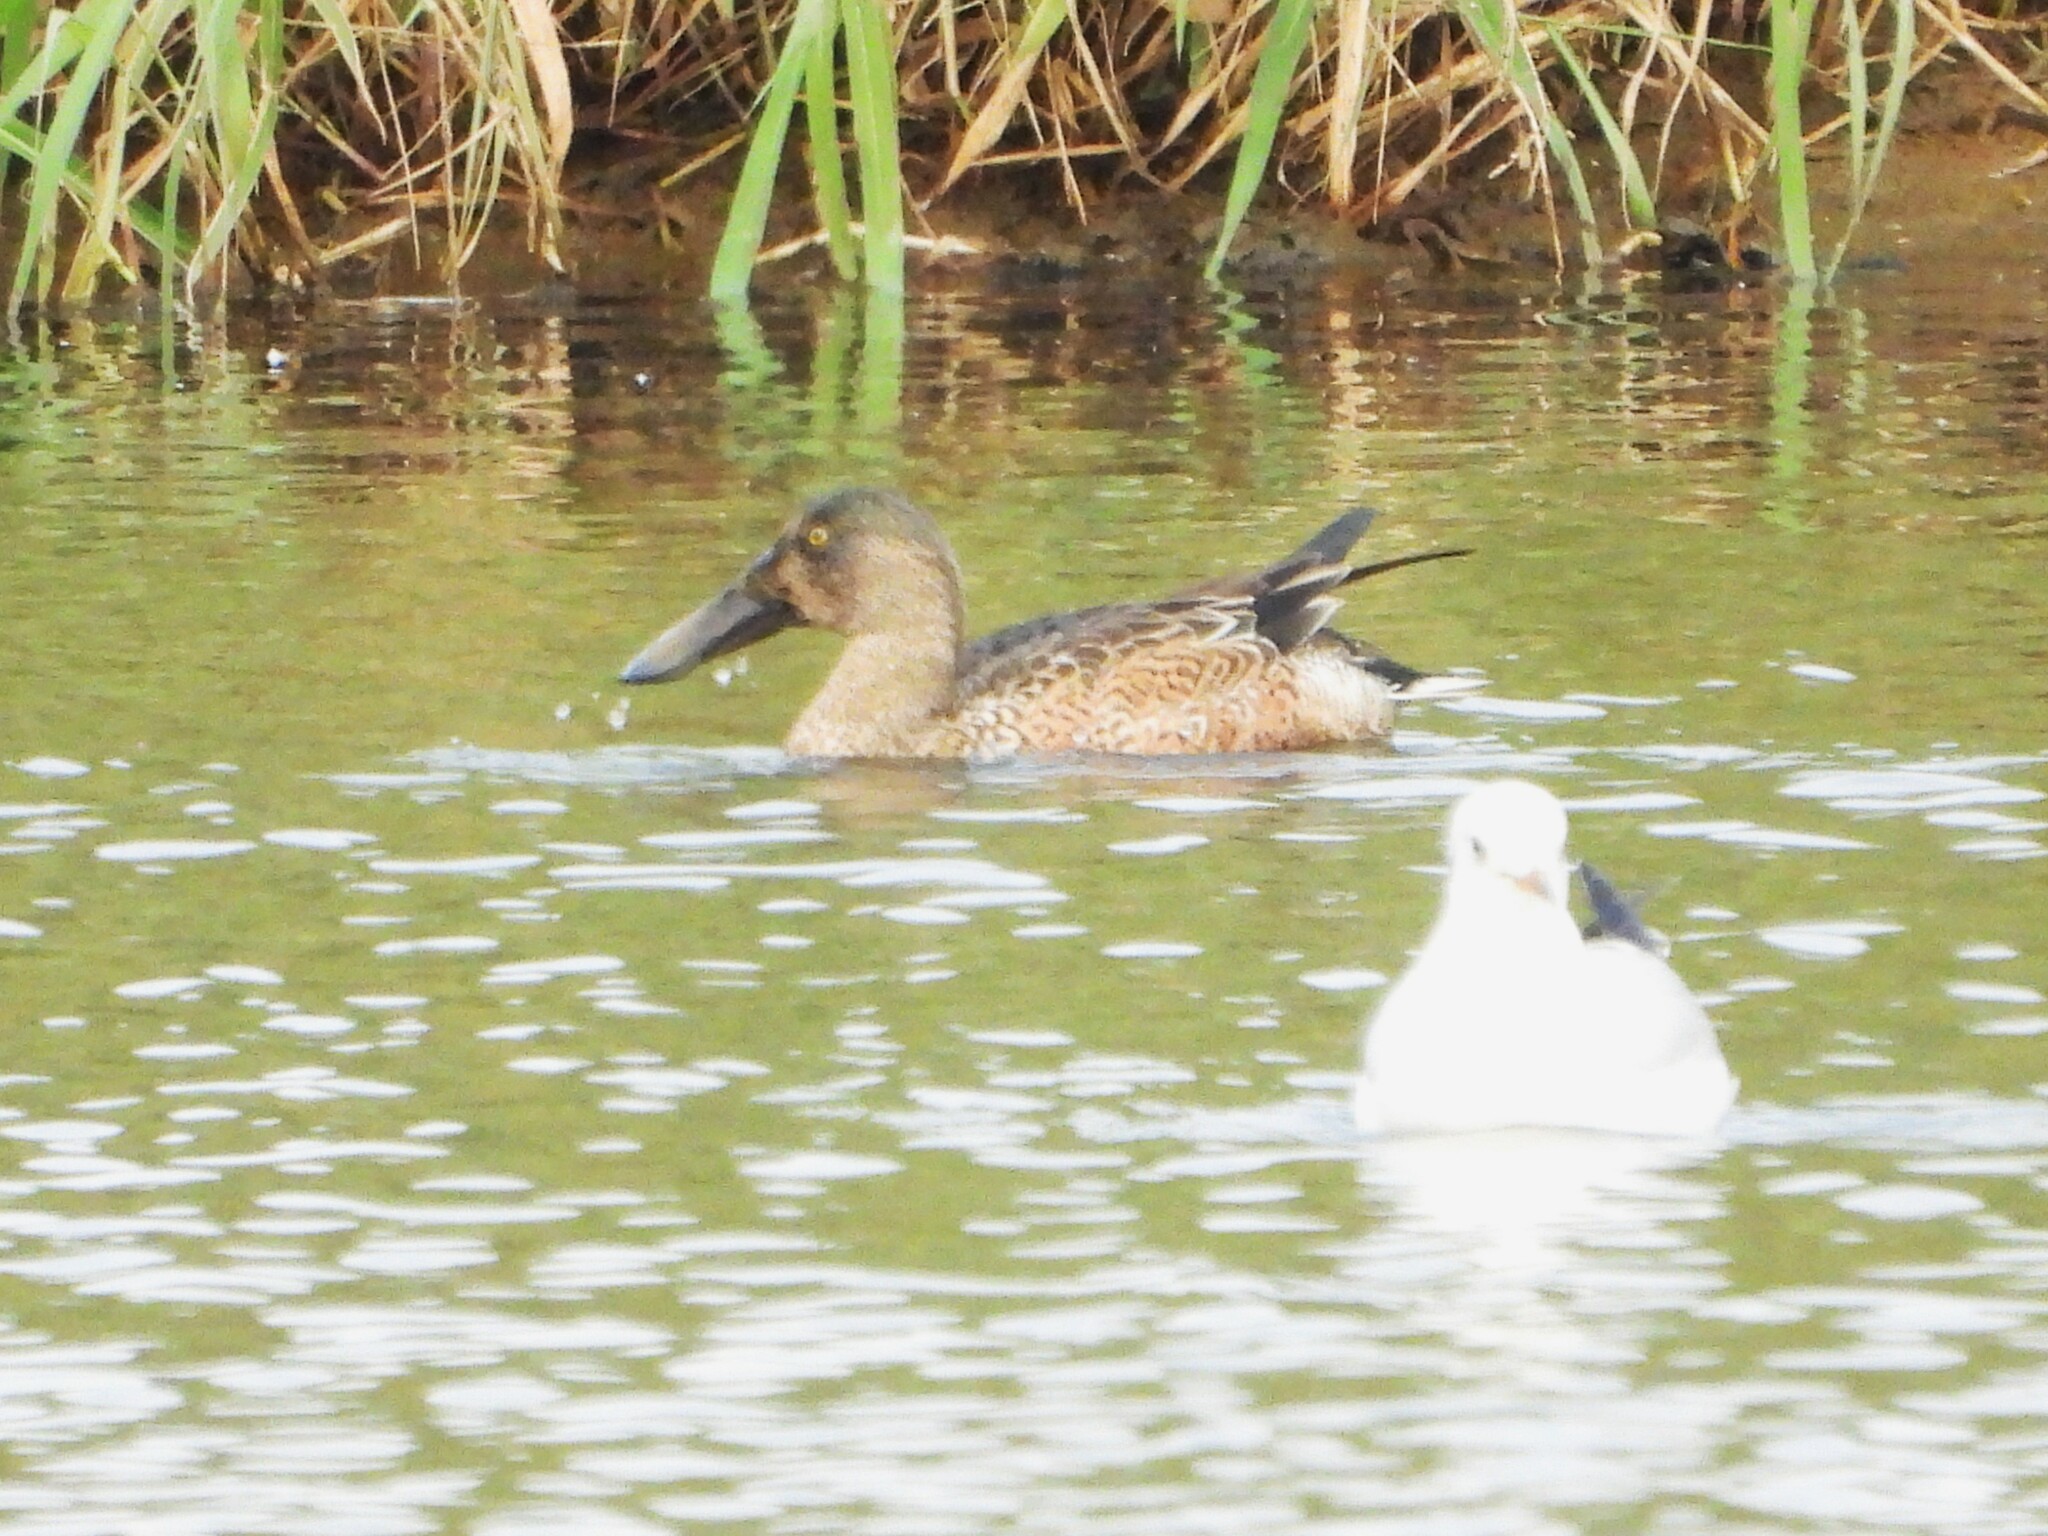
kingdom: Animalia
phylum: Chordata
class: Aves
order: Anseriformes
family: Anatidae
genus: Spatula
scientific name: Spatula clypeata
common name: Northern shoveler
